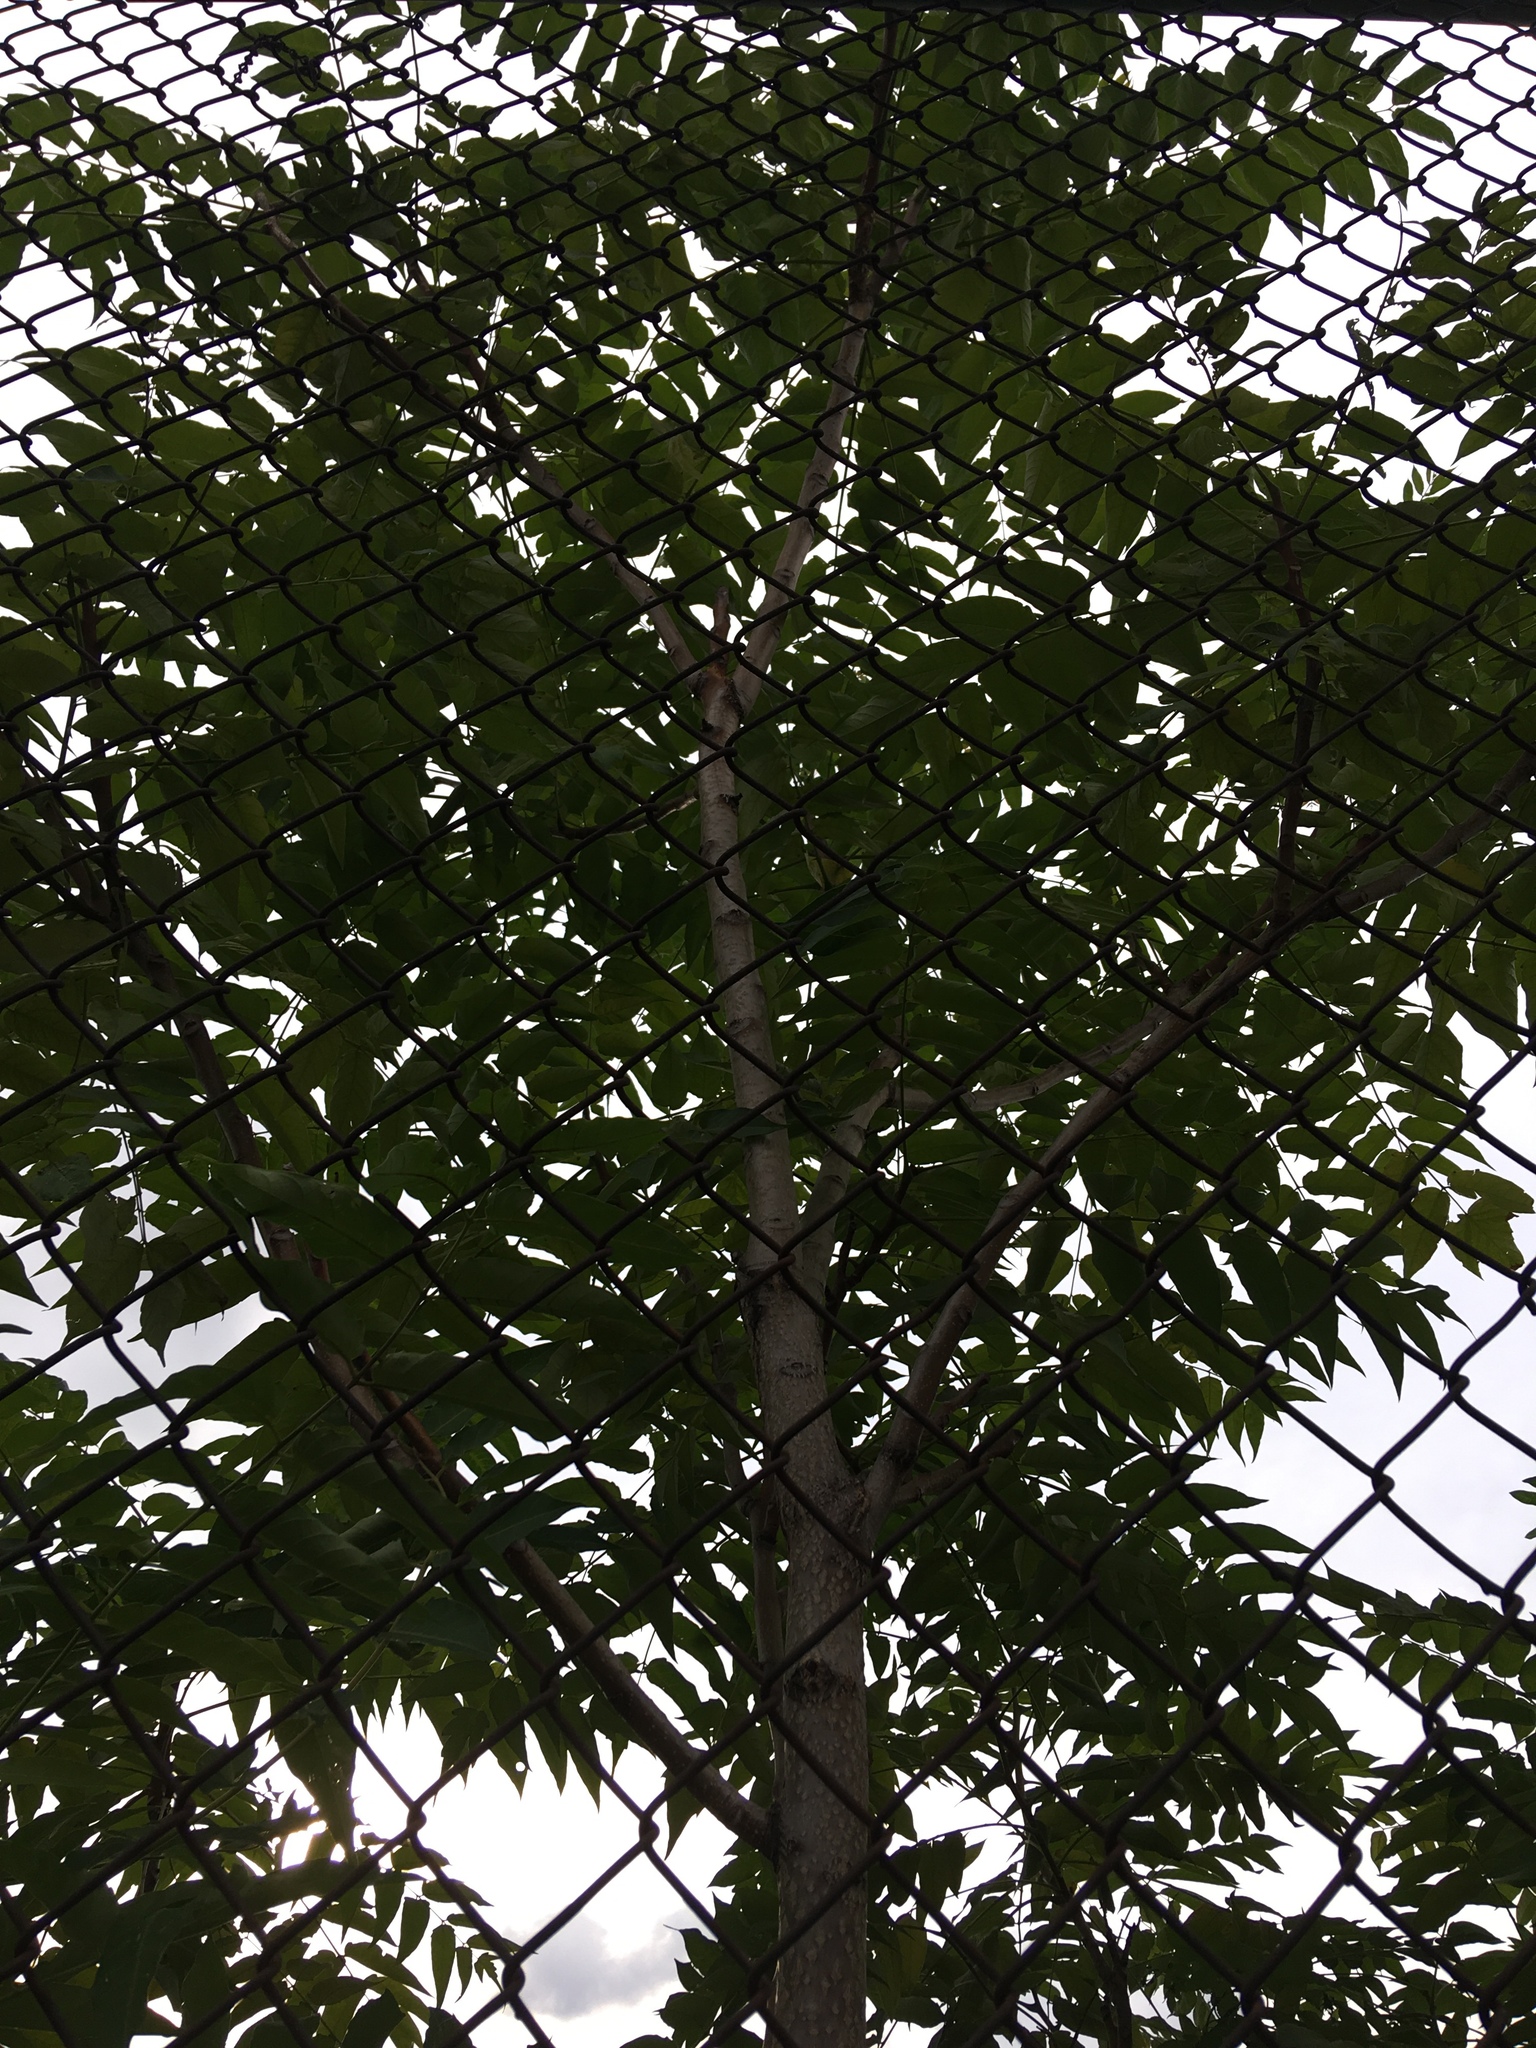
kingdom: Plantae
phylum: Tracheophyta
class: Magnoliopsida
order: Sapindales
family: Simaroubaceae
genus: Ailanthus
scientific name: Ailanthus altissima
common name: Tree-of-heaven
